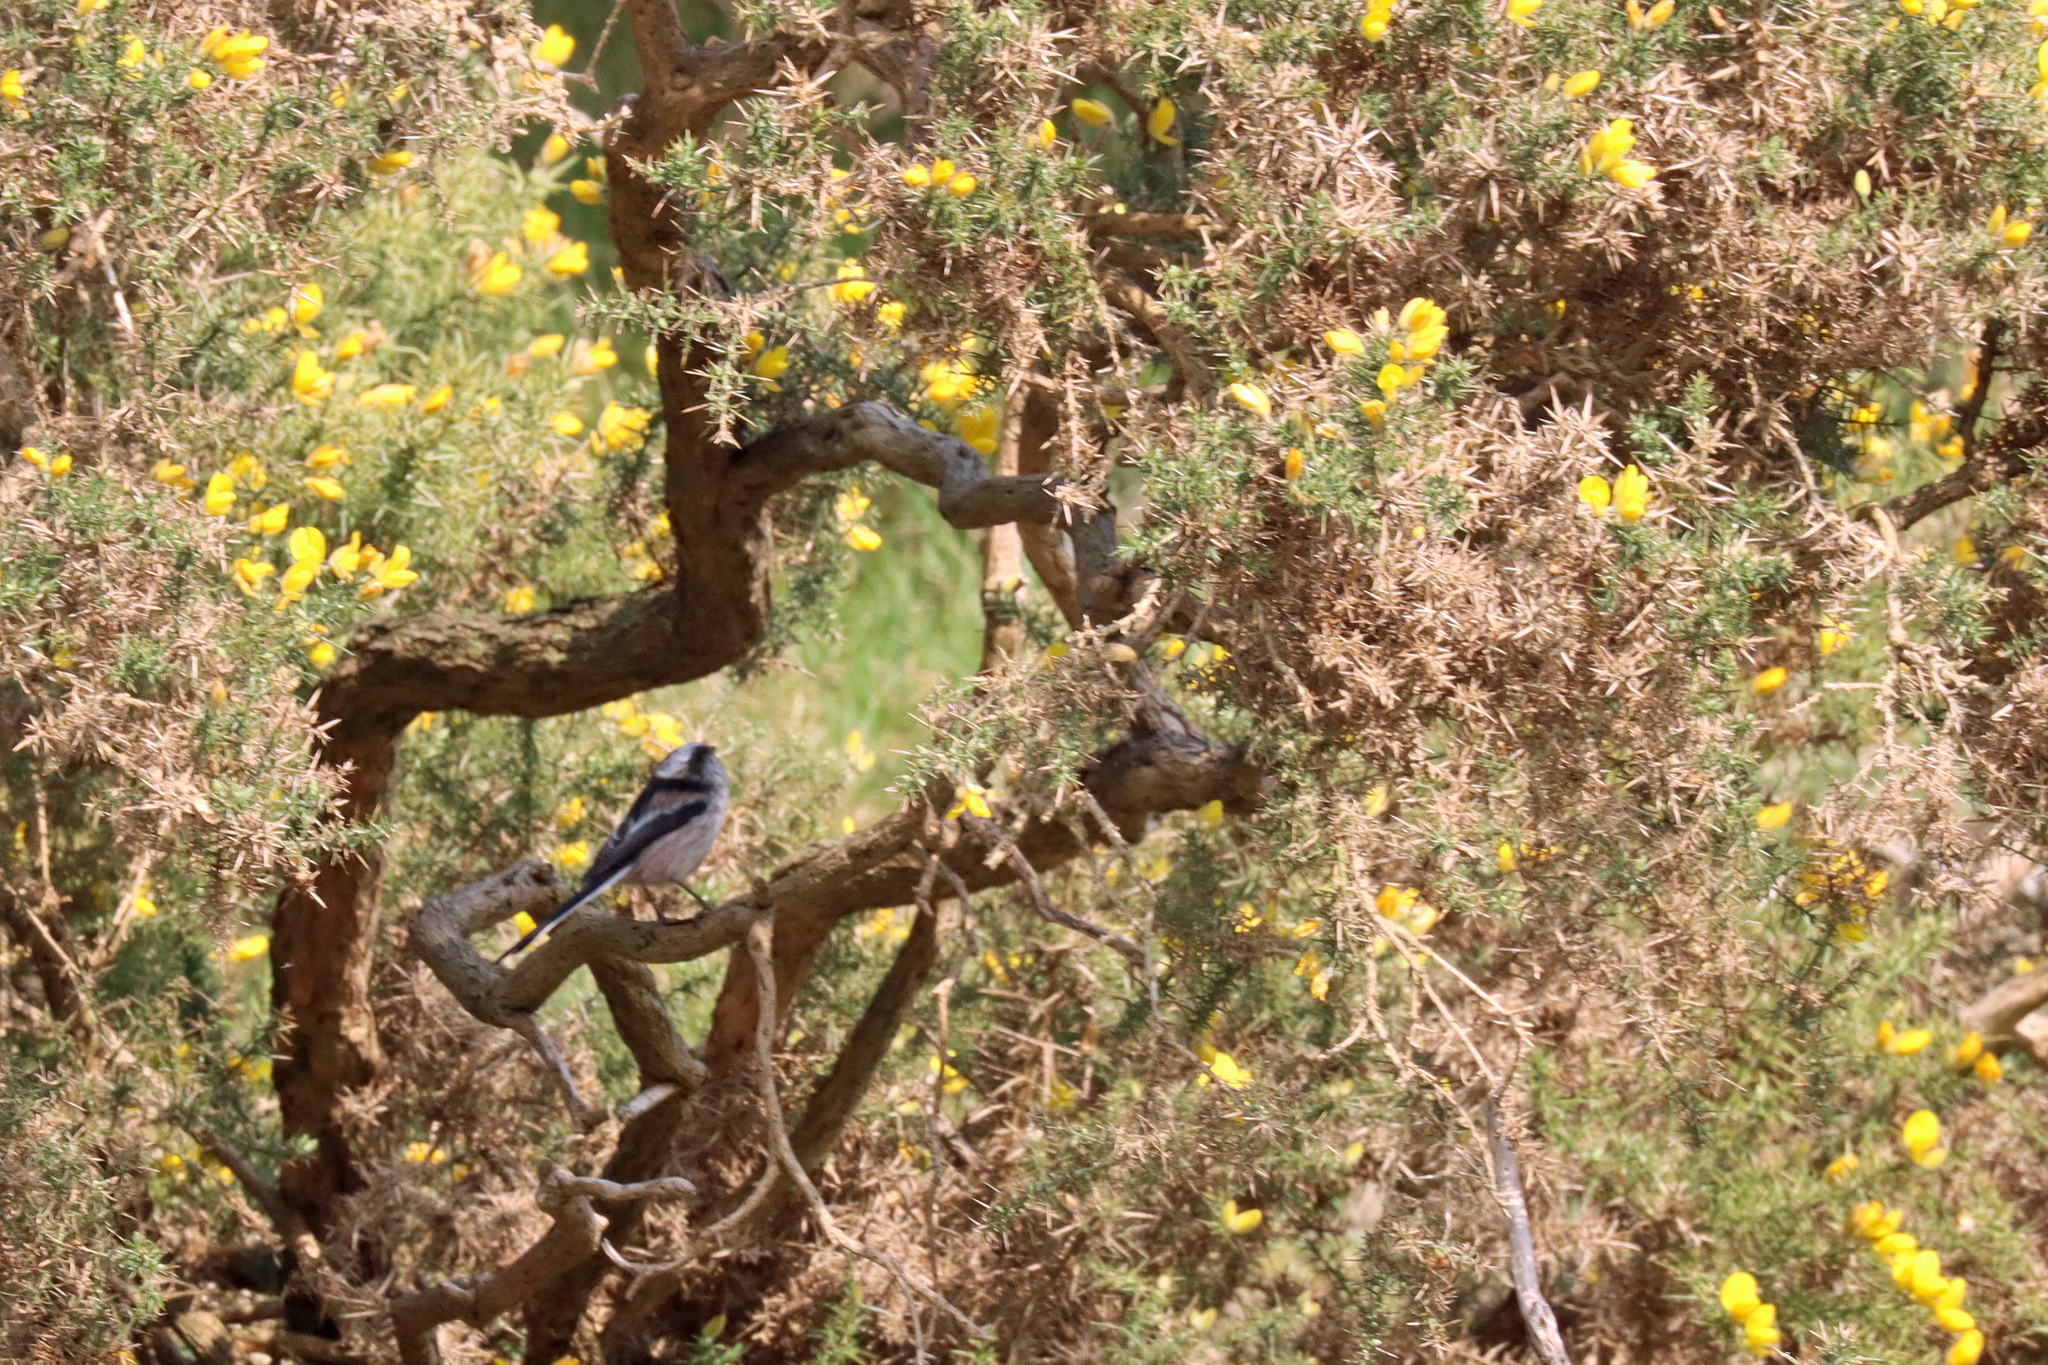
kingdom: Animalia
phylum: Chordata
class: Aves
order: Passeriformes
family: Aegithalidae
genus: Aegithalos
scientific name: Aegithalos caudatus
